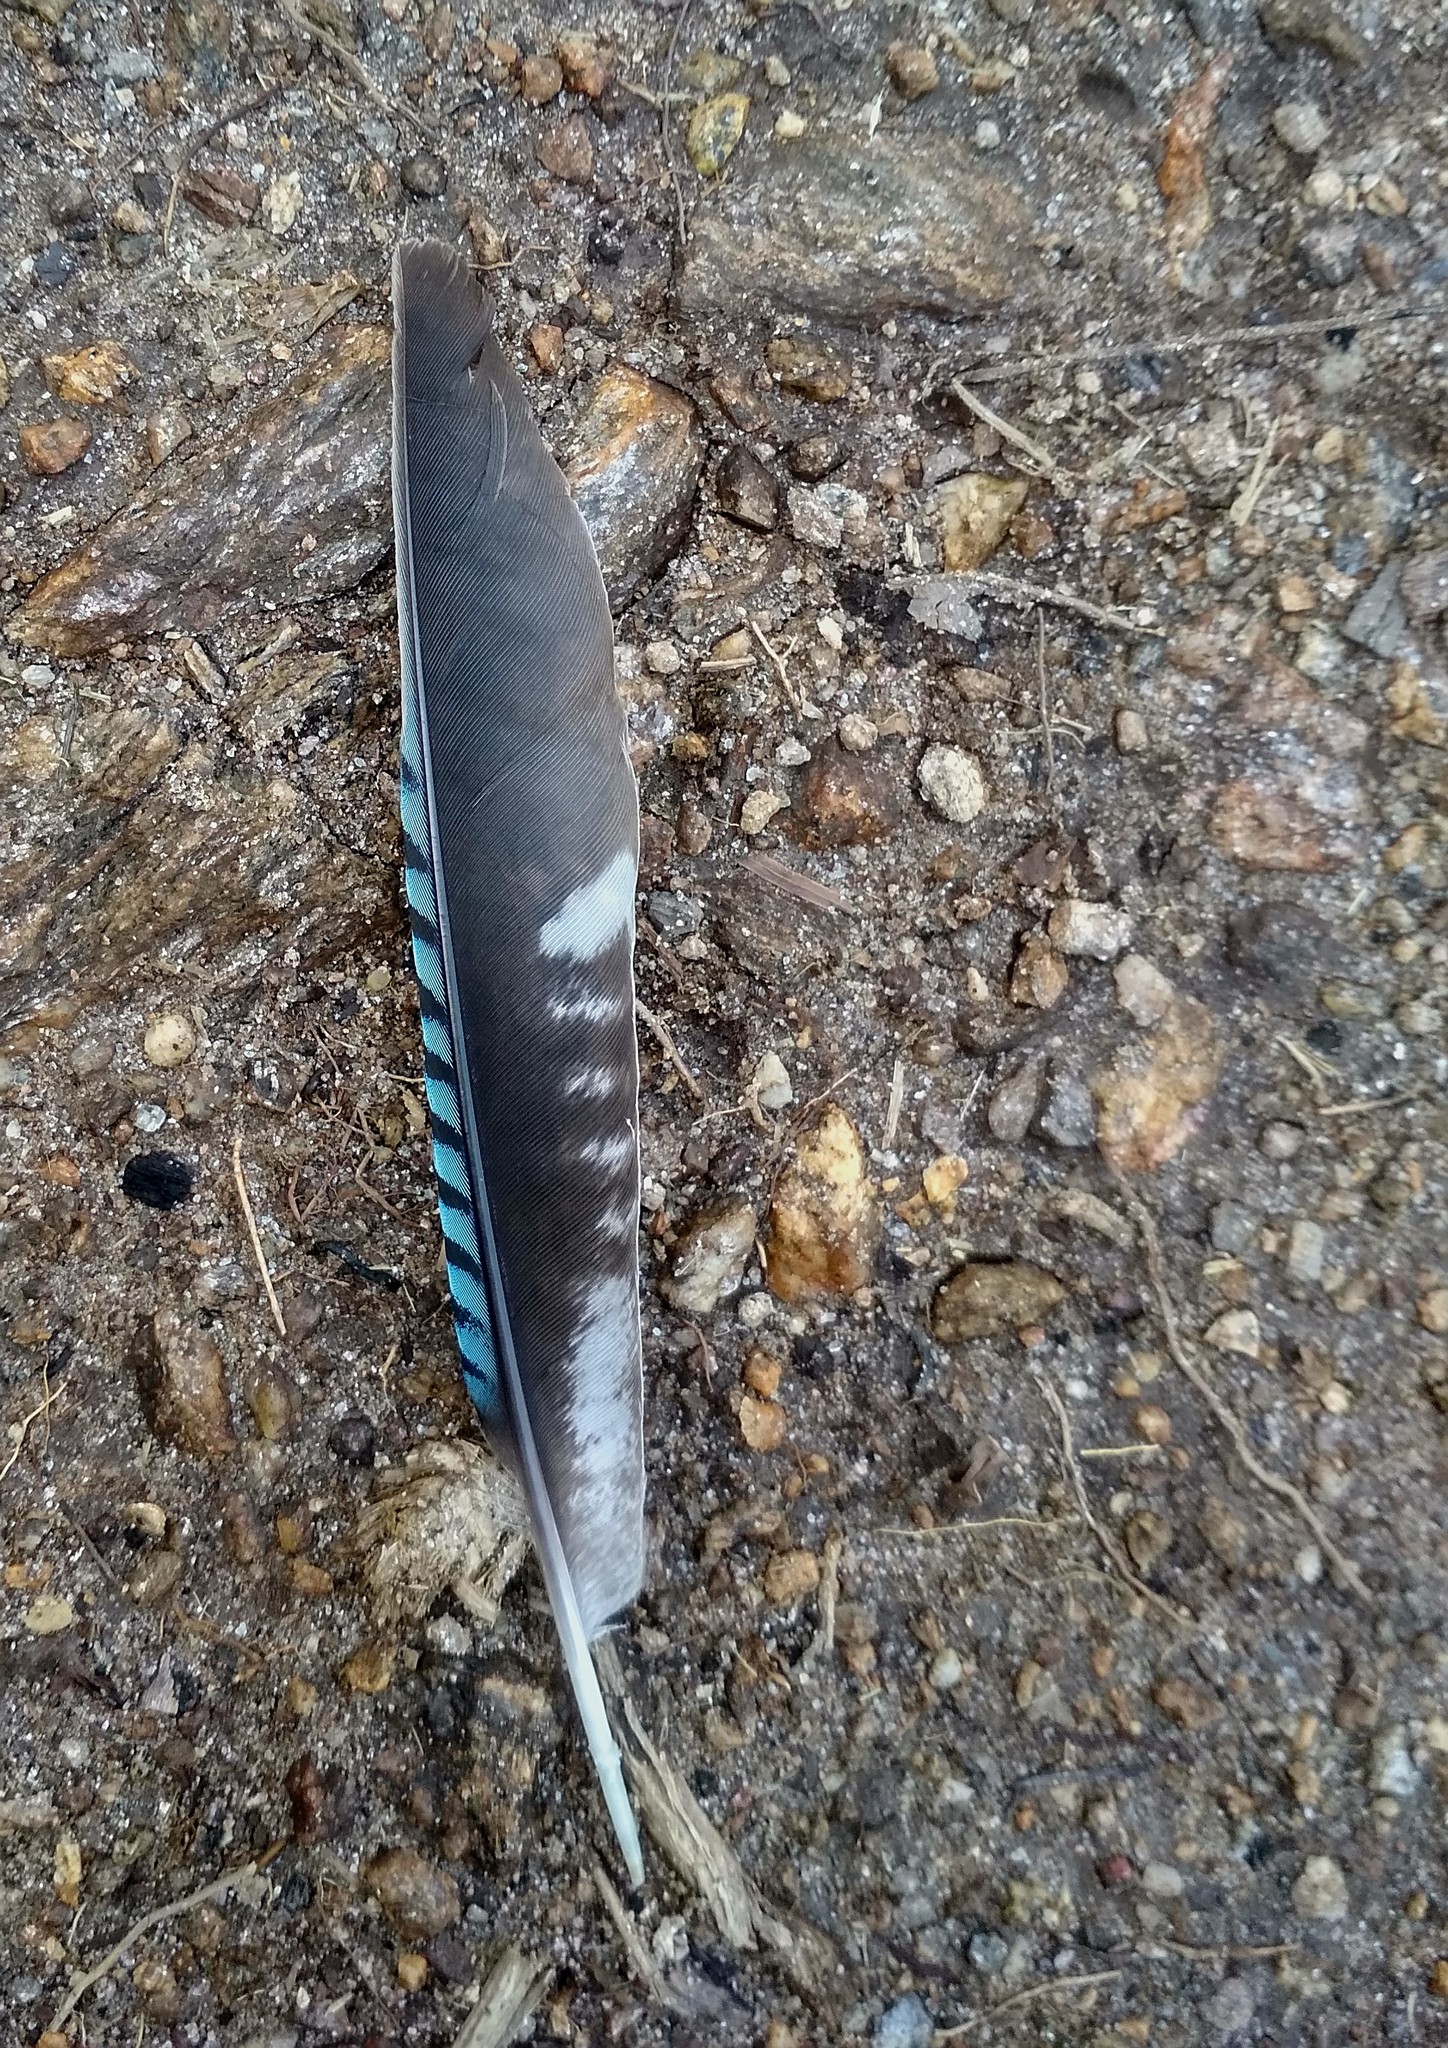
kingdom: Animalia
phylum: Chordata
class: Aves
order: Passeriformes
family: Corvidae
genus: Garrulus
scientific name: Garrulus lanceolatus
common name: Black-headed jay
